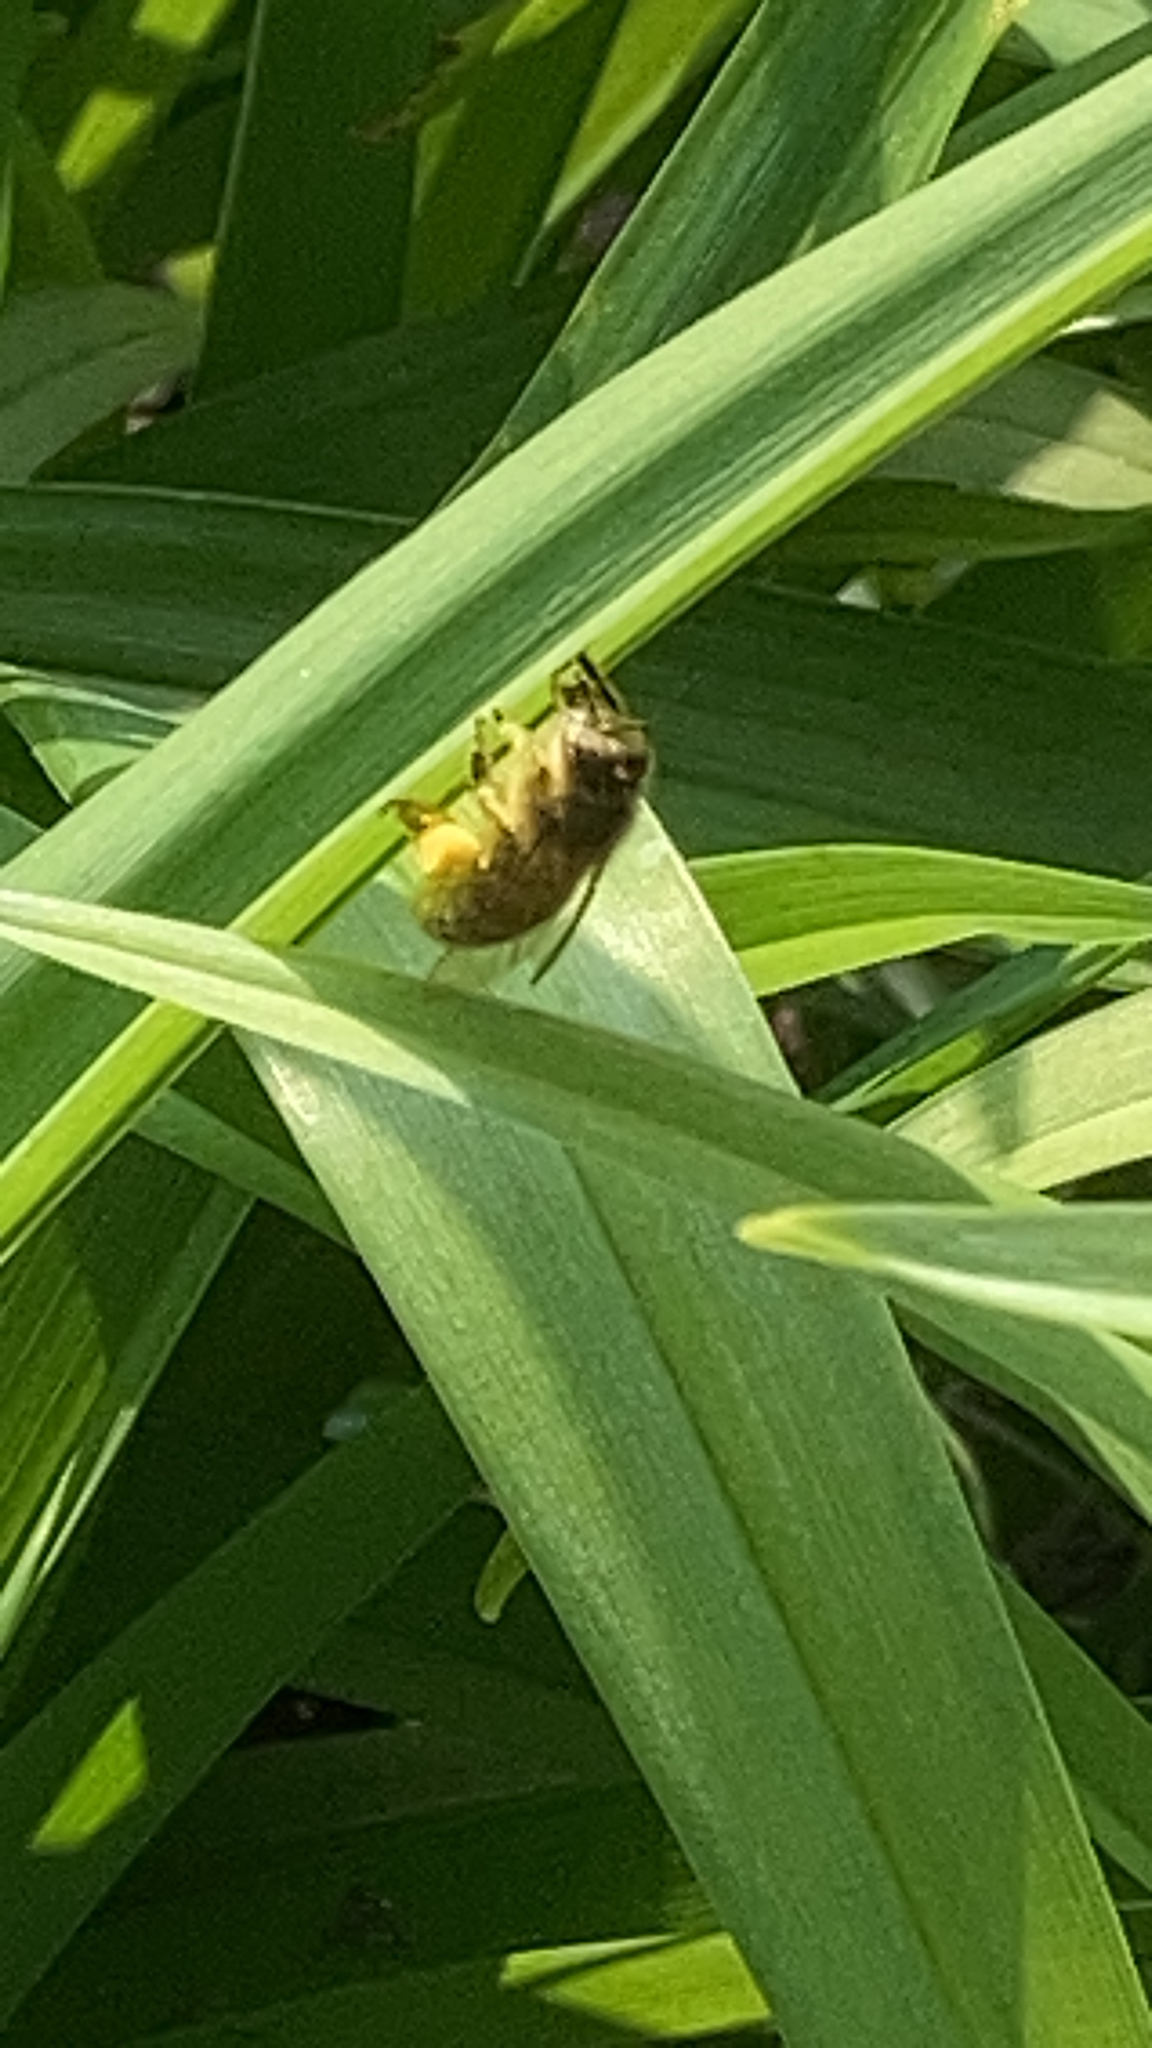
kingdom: Animalia
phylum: Arthropoda
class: Insecta
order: Hymenoptera
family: Apidae
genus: Apis
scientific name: Apis mellifera
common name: Honey bee
